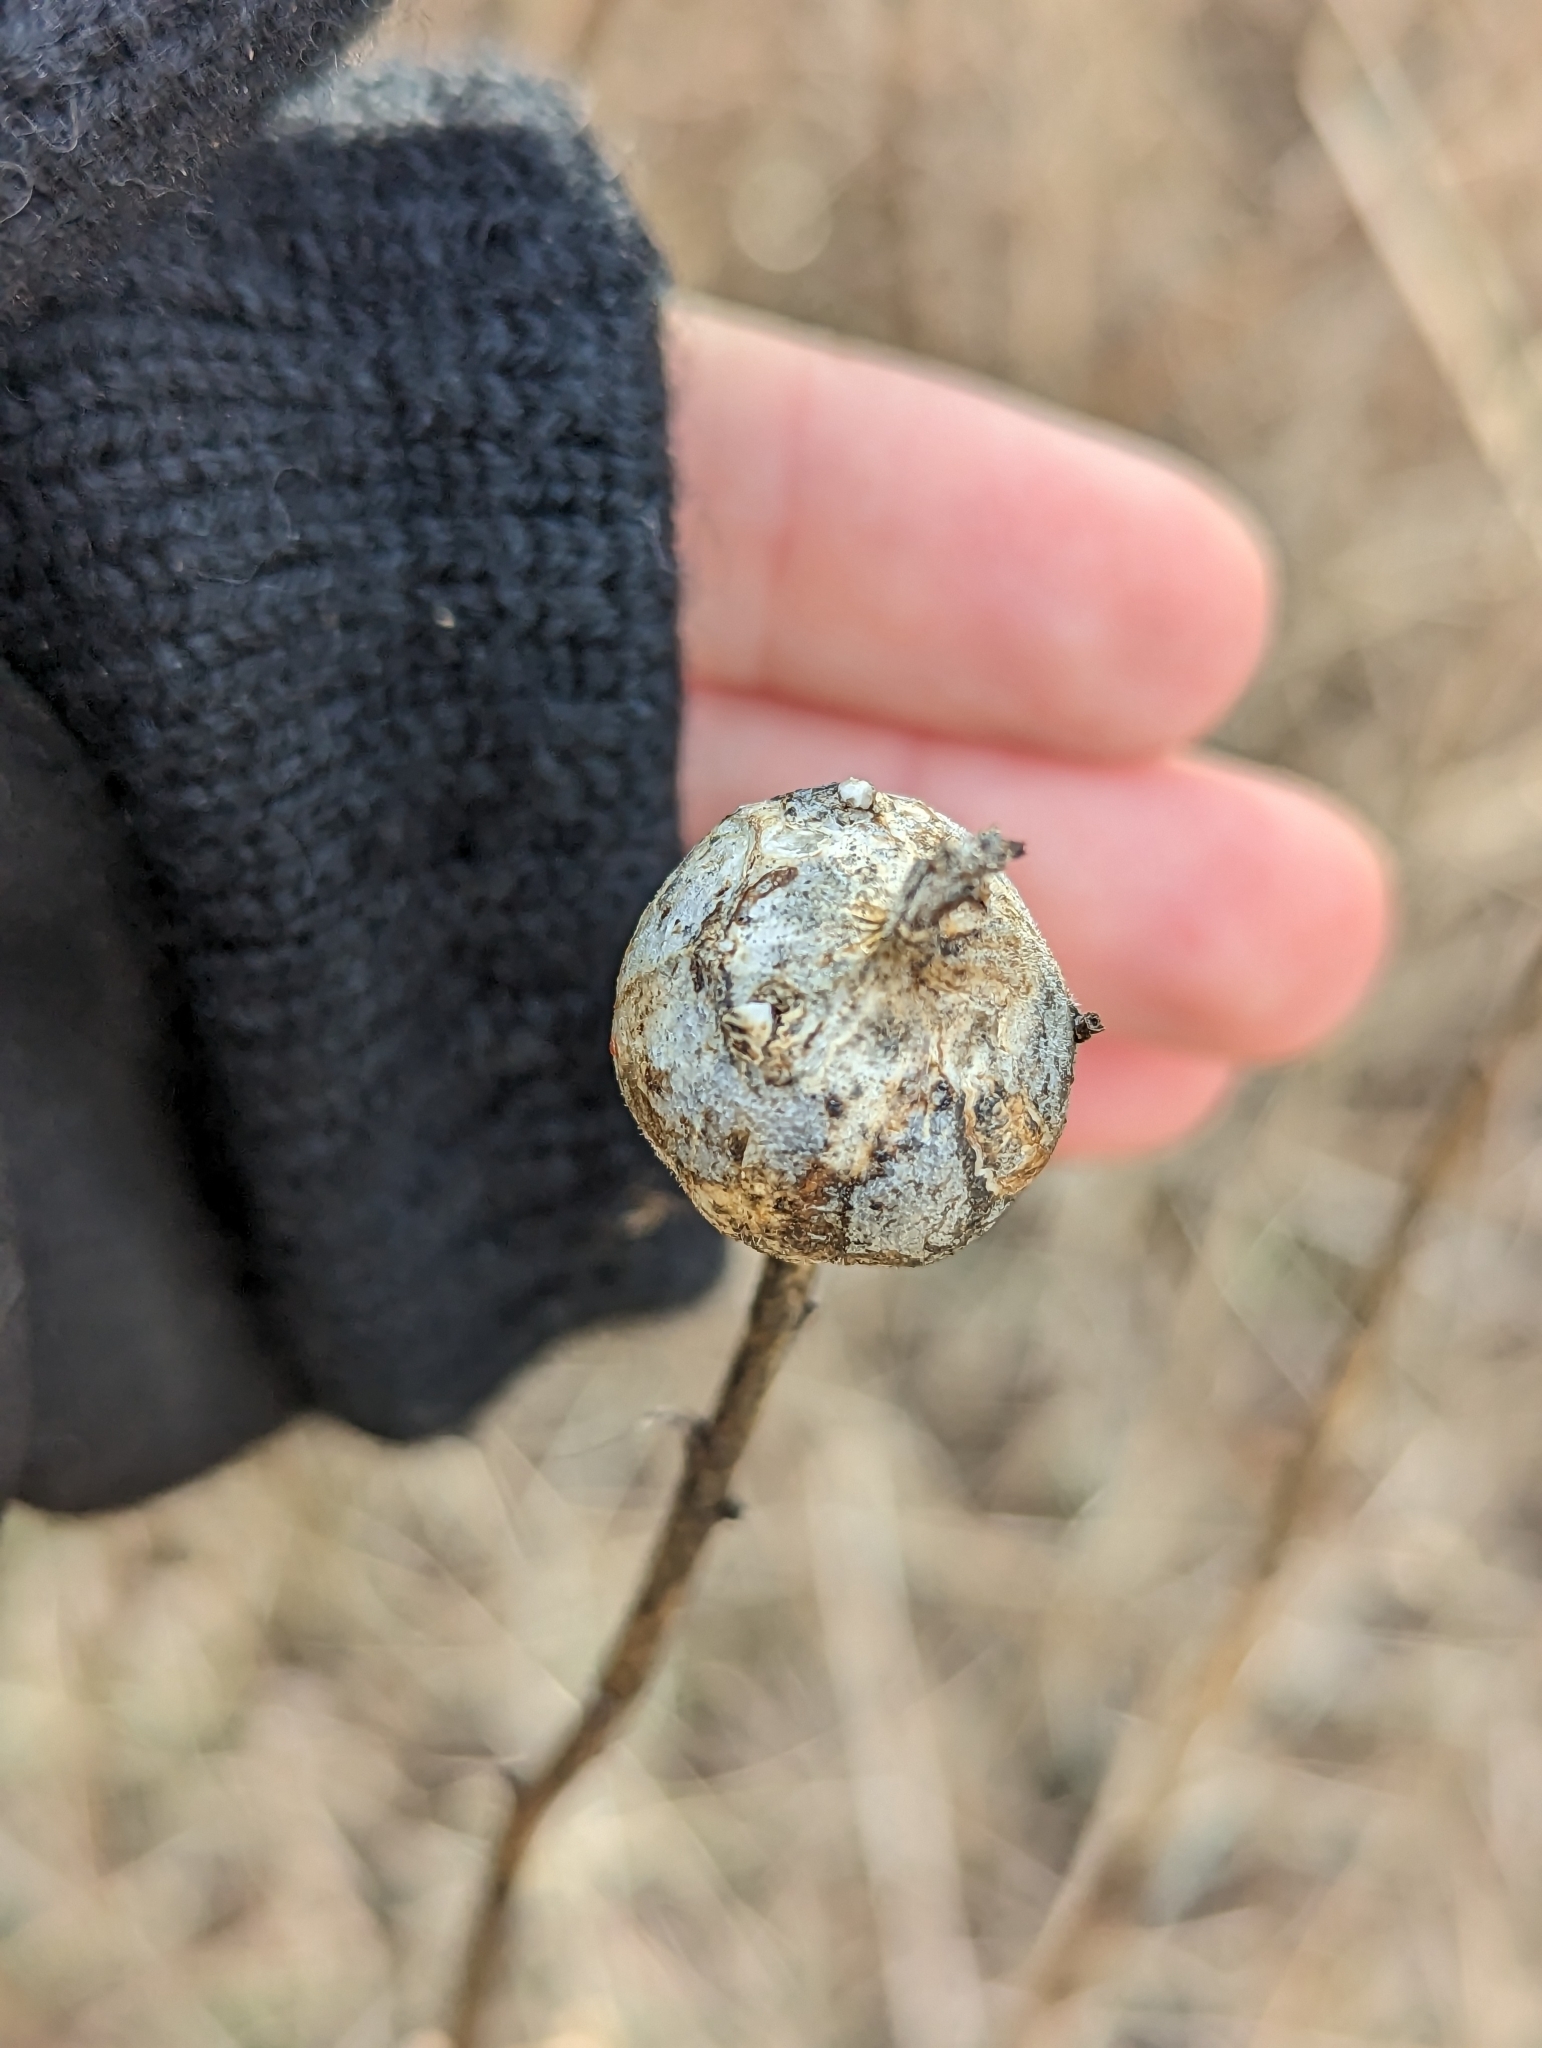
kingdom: Animalia
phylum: Arthropoda
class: Insecta
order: Diptera
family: Tephritidae
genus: Eurosta
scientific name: Eurosta solidaginis
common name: Goldenrod gall fly
